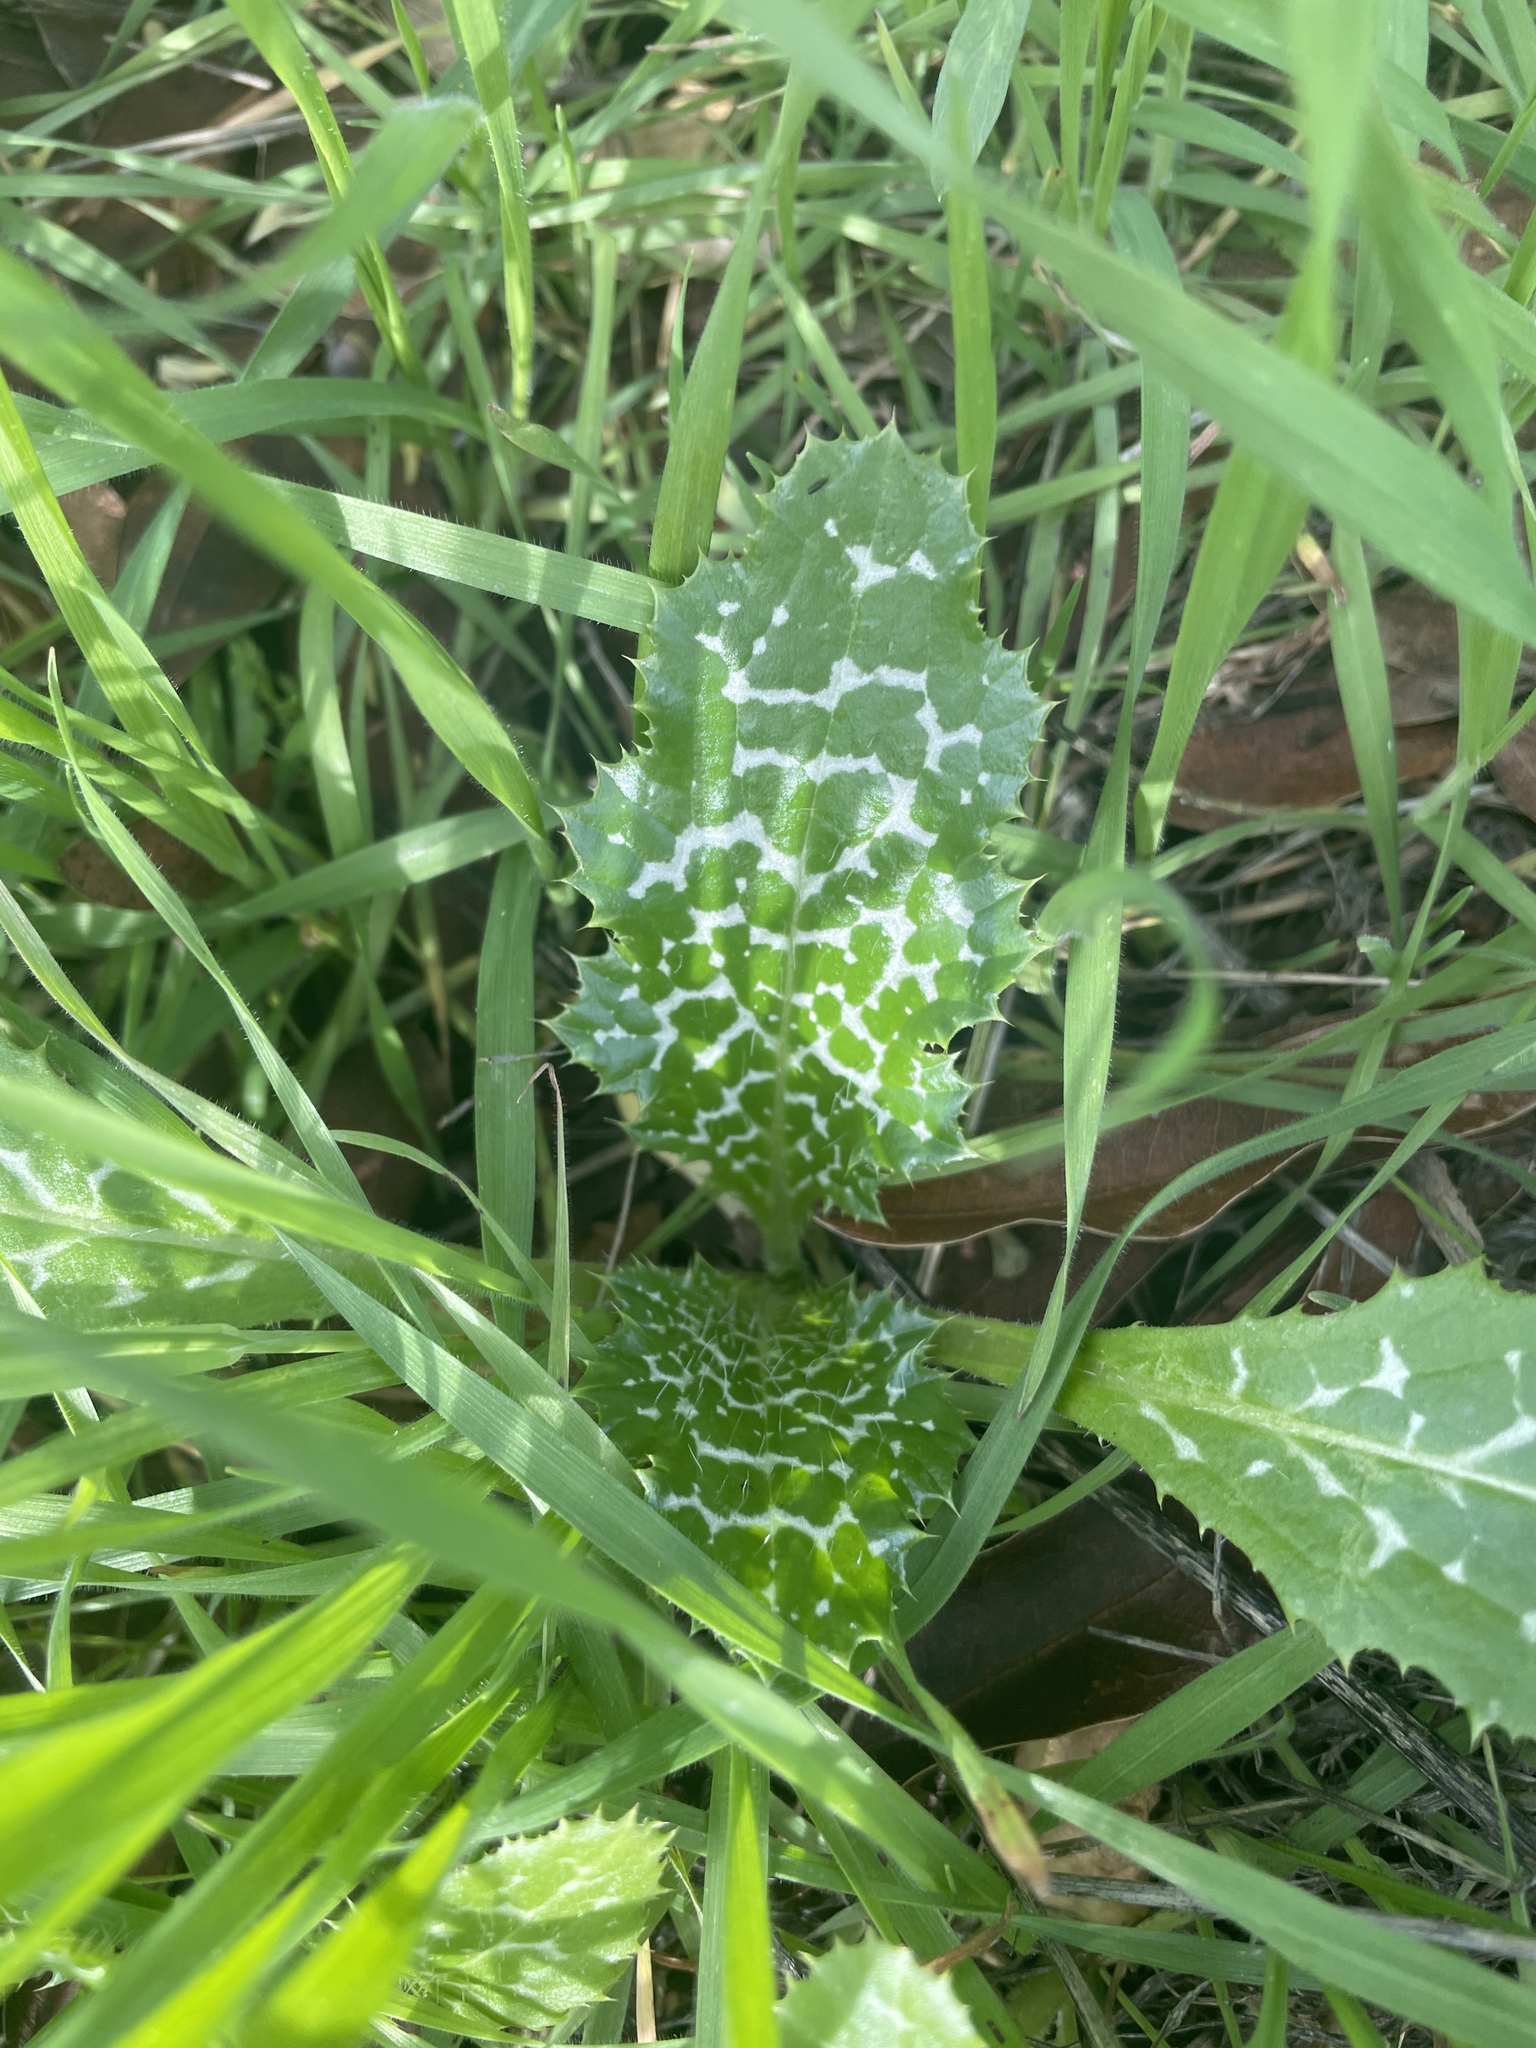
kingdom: Plantae
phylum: Tracheophyta
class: Magnoliopsida
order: Asterales
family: Asteraceae
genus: Silybum
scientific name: Silybum marianum
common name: Milk thistle
